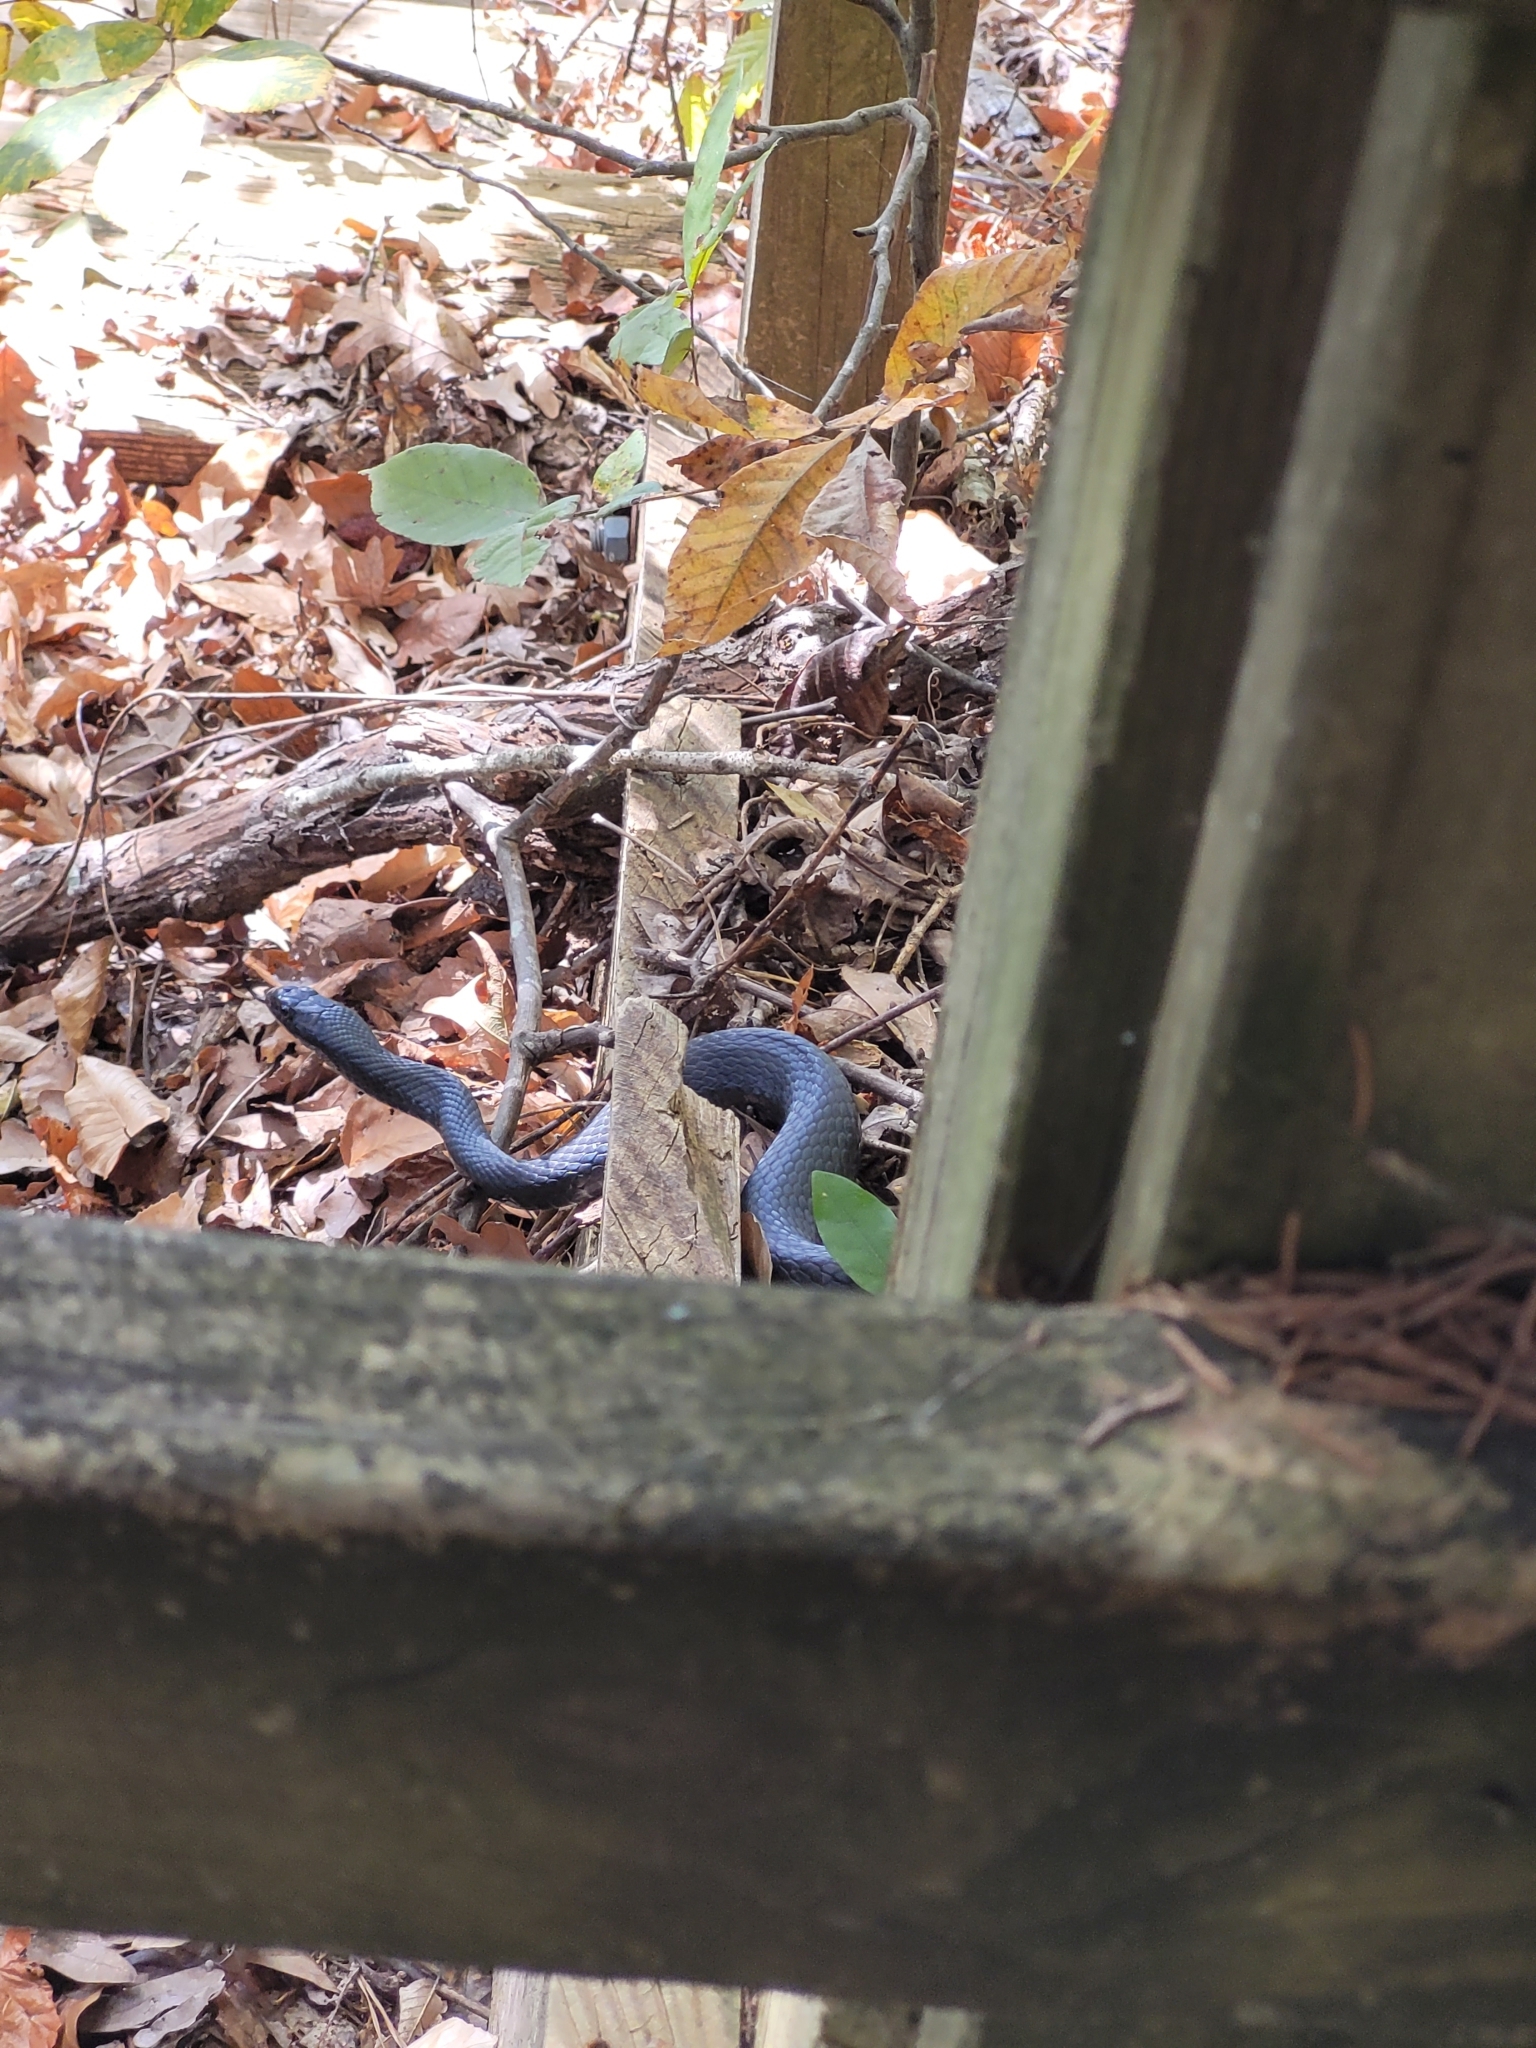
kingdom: Animalia
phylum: Chordata
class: Squamata
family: Colubridae
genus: Coluber
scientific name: Coluber constrictor
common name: Eastern racer
